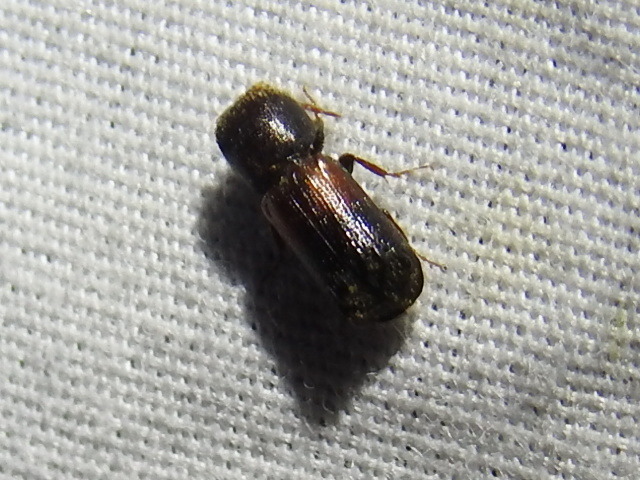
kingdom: Animalia
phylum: Arthropoda
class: Insecta
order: Coleoptera
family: Bostrichidae
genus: Xylobiops
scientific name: Xylobiops basilaris
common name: Red-shouldered bostrichid
